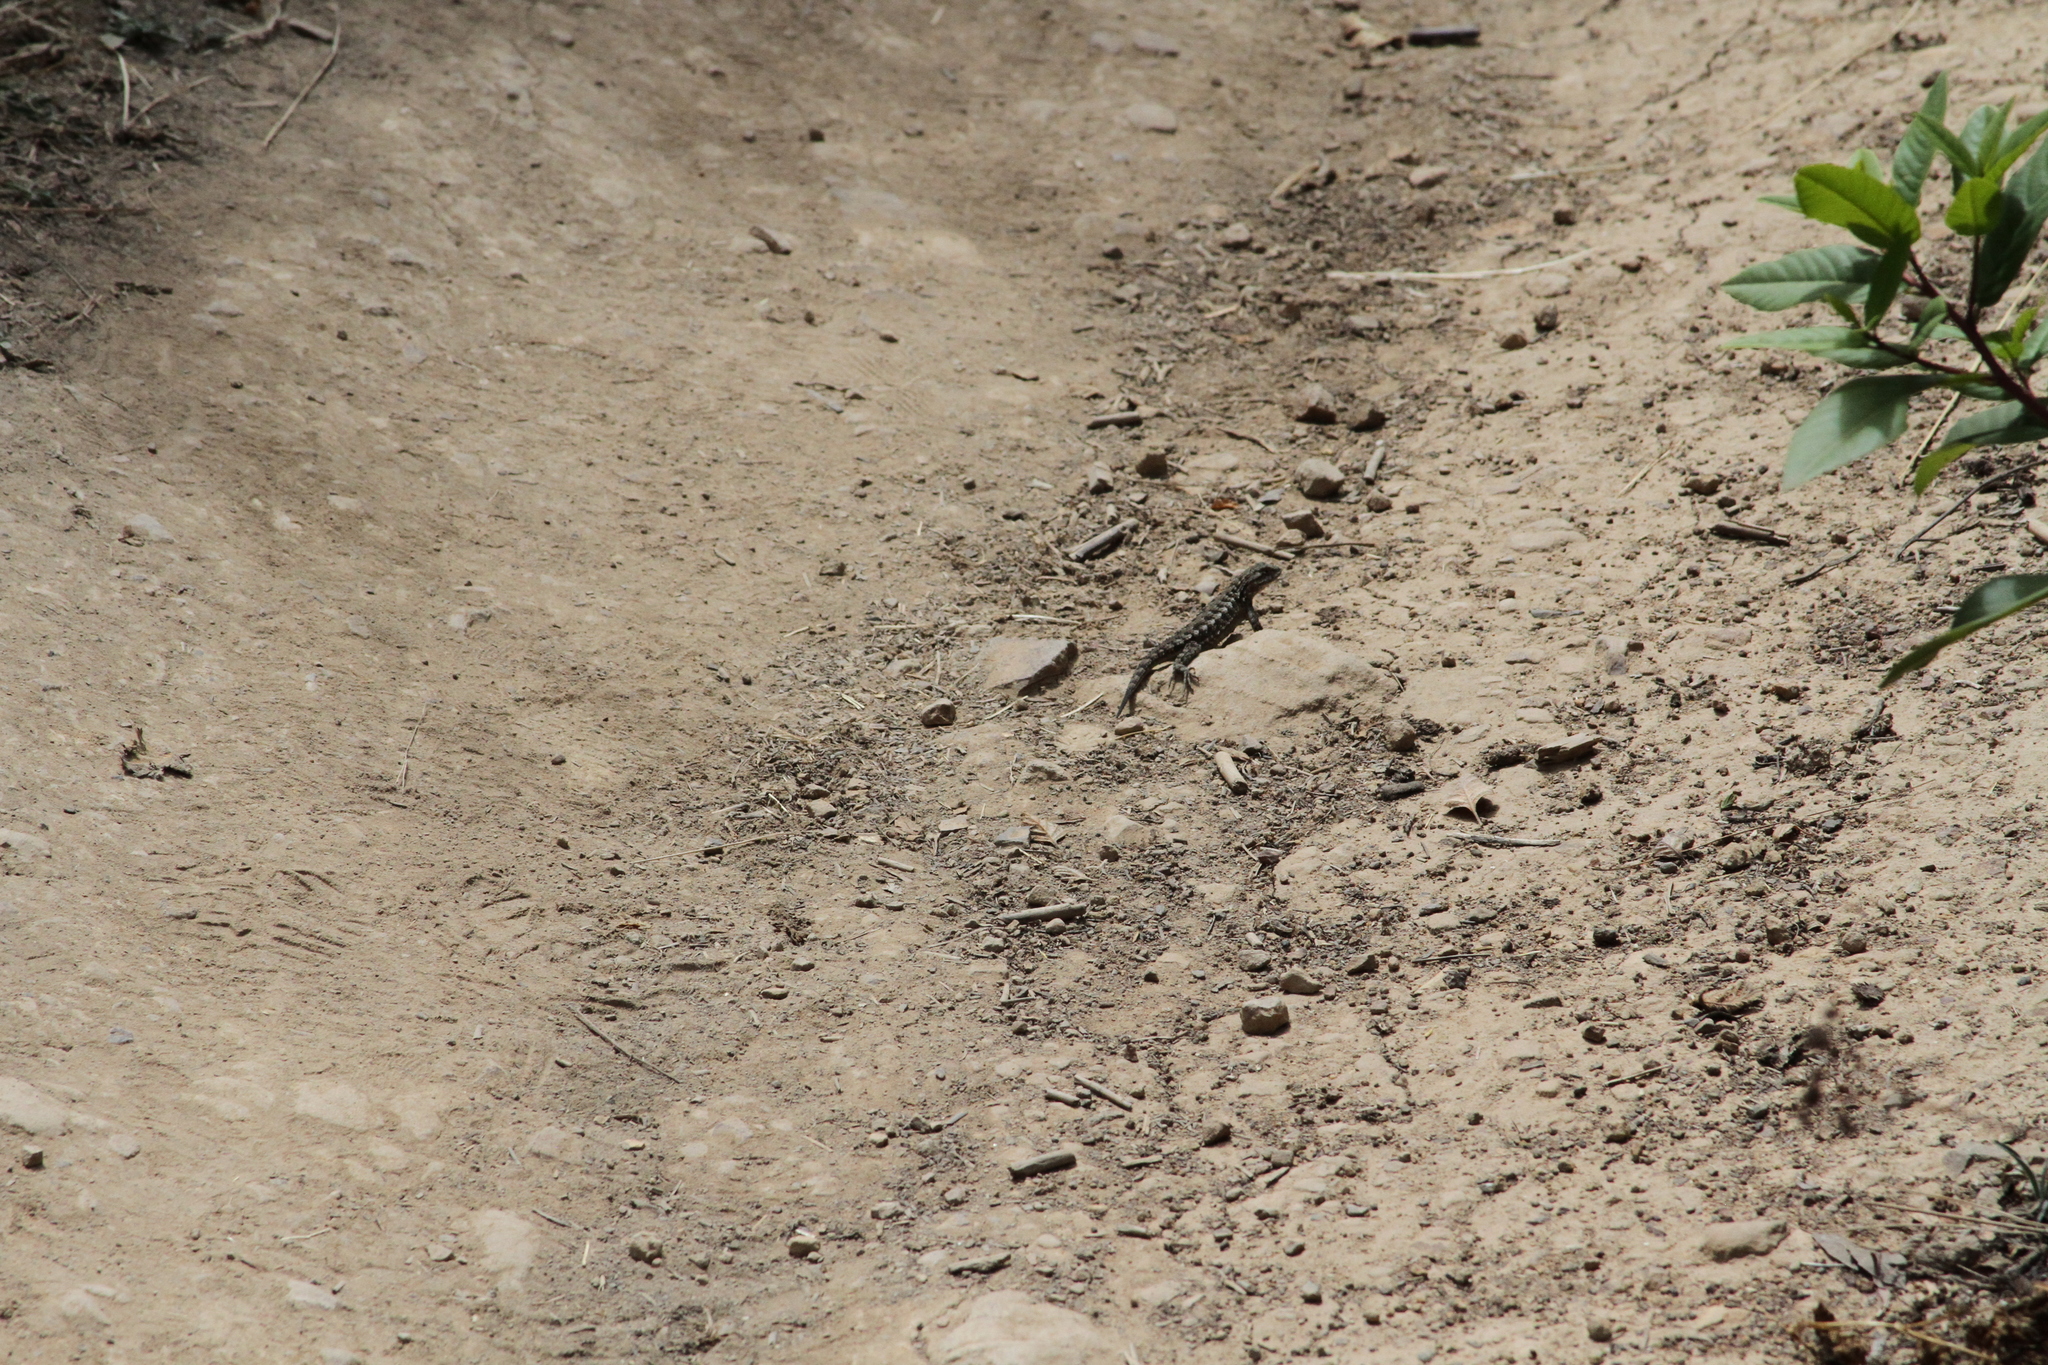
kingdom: Animalia
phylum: Chordata
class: Squamata
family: Phrynosomatidae
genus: Sceloporus
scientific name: Sceloporus occidentalis
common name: Western fence lizard
